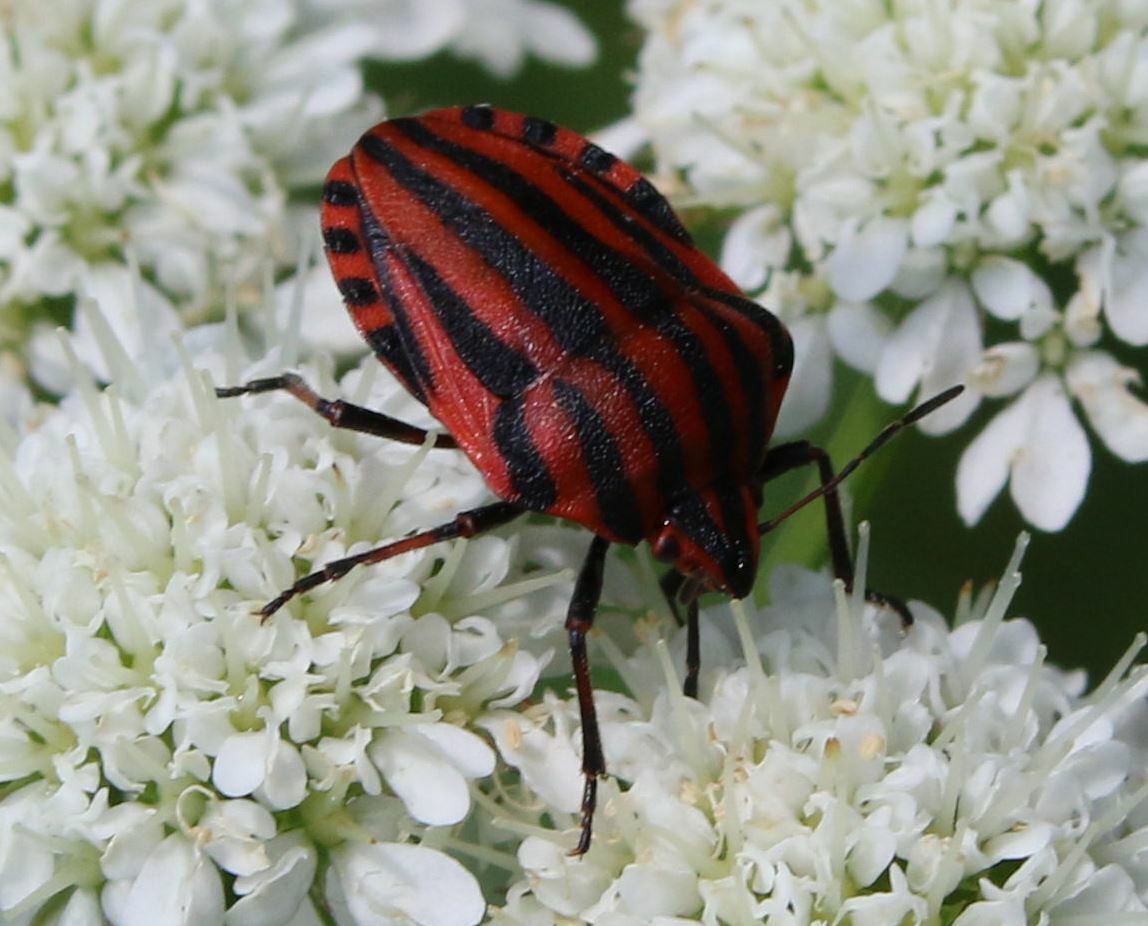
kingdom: Animalia
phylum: Arthropoda
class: Insecta
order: Hemiptera
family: Pentatomidae
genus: Graphosoma
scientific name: Graphosoma italicum
